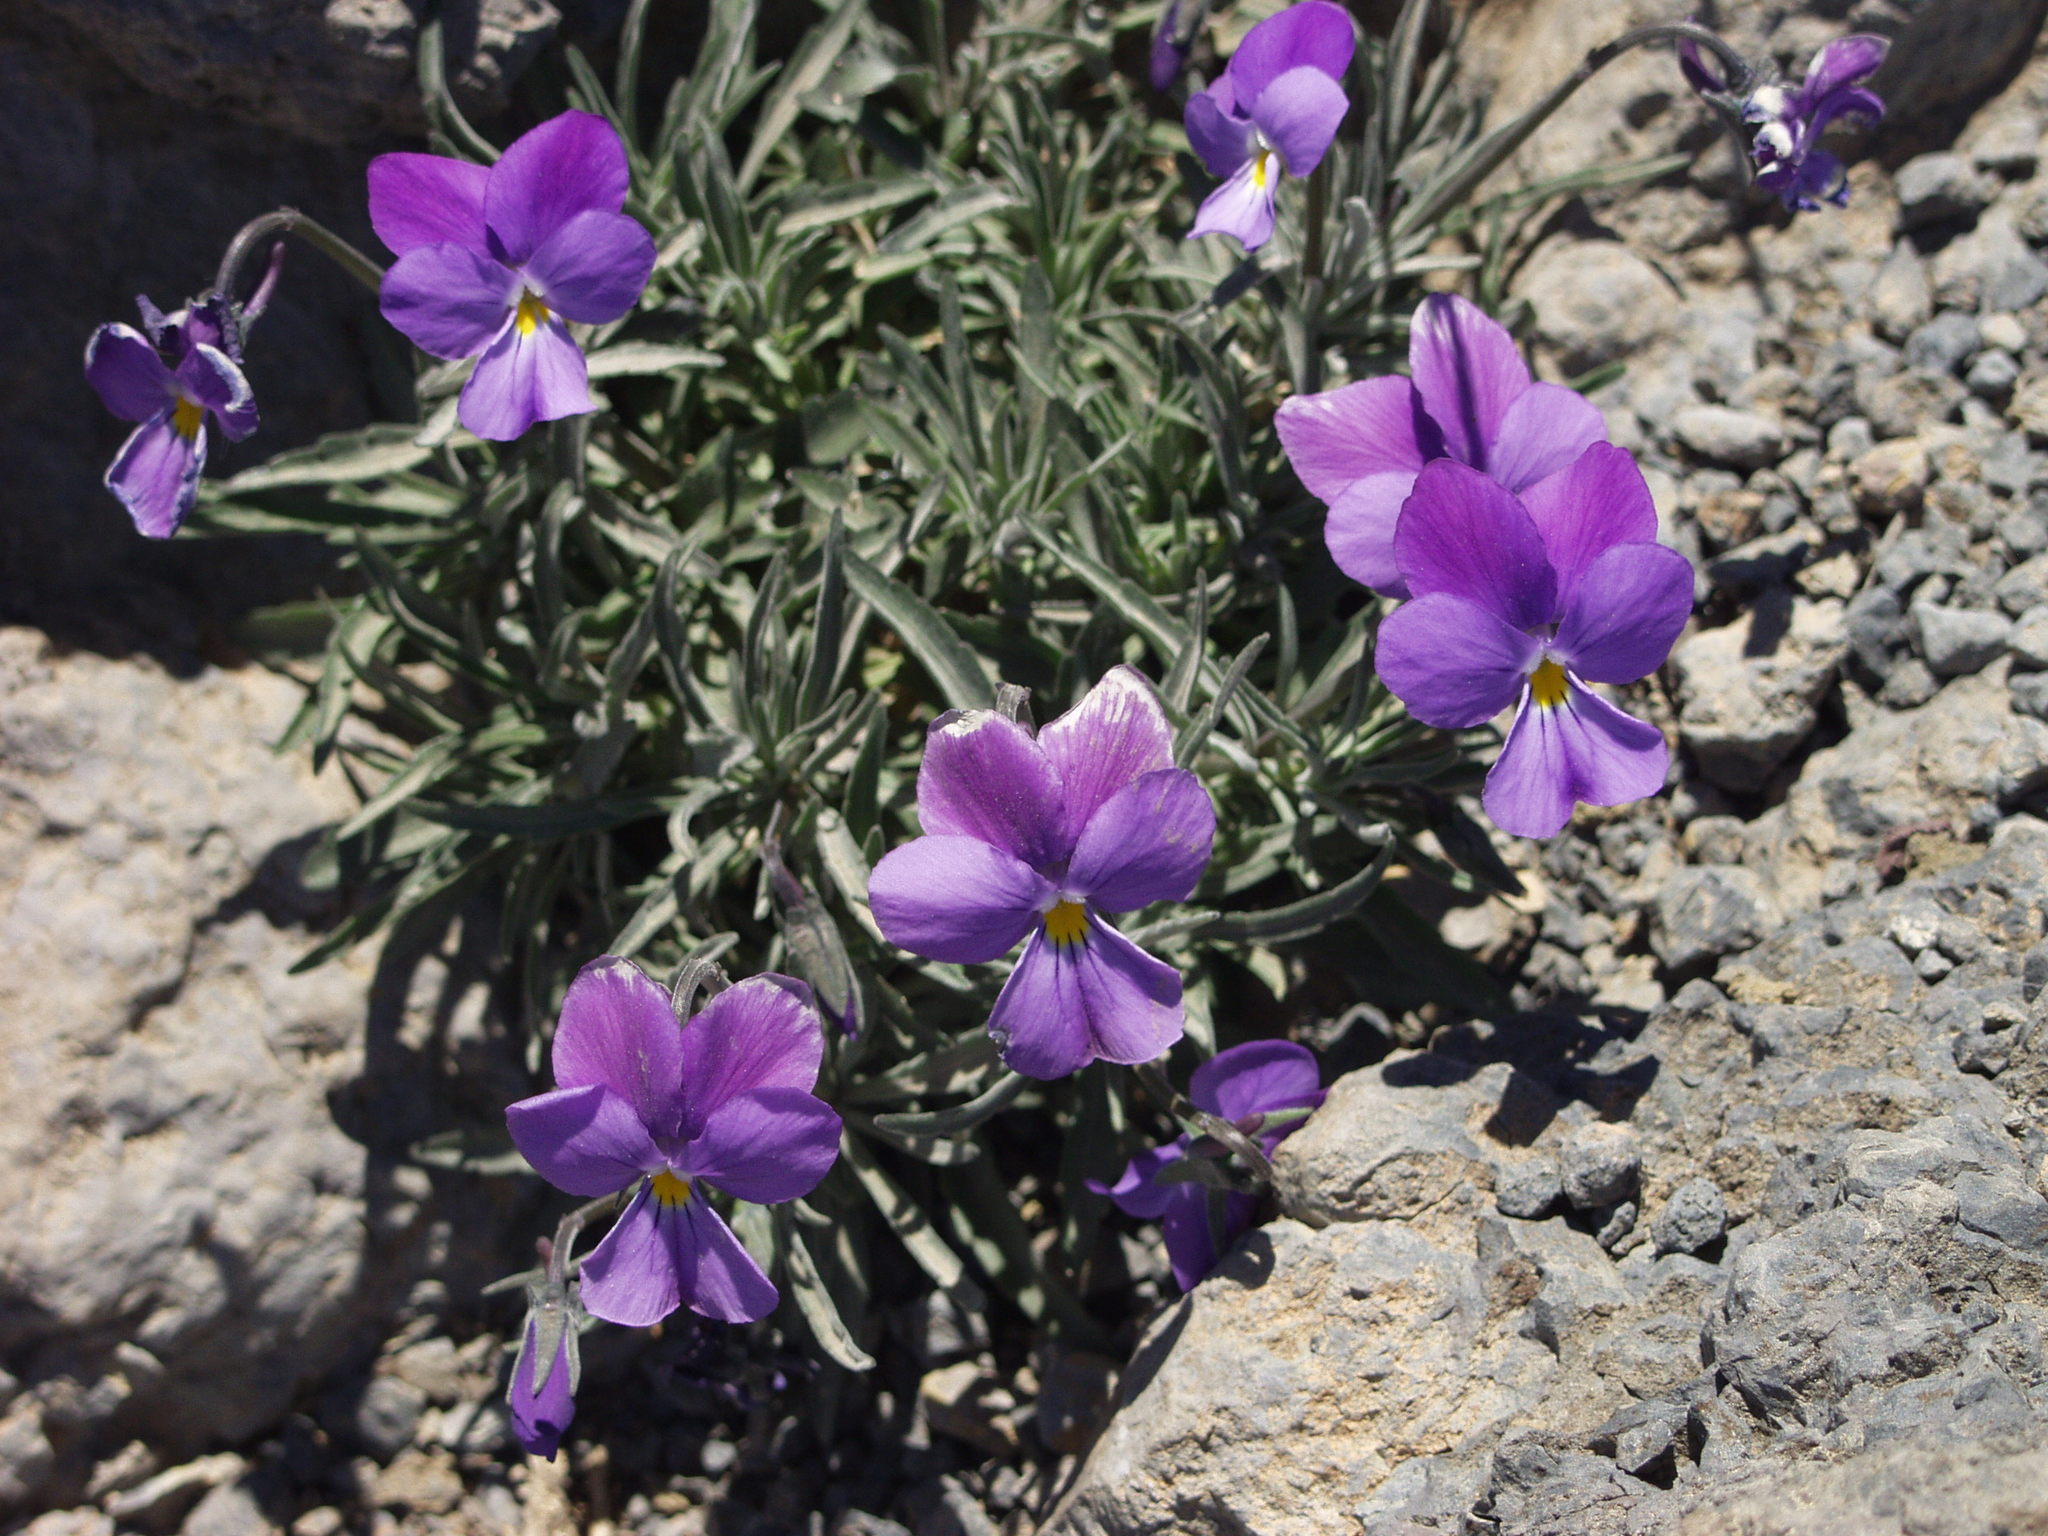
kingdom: Plantae
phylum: Tracheophyta
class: Magnoliopsida
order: Malpighiales
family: Violaceae
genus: Viola
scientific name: Viola palmensis
